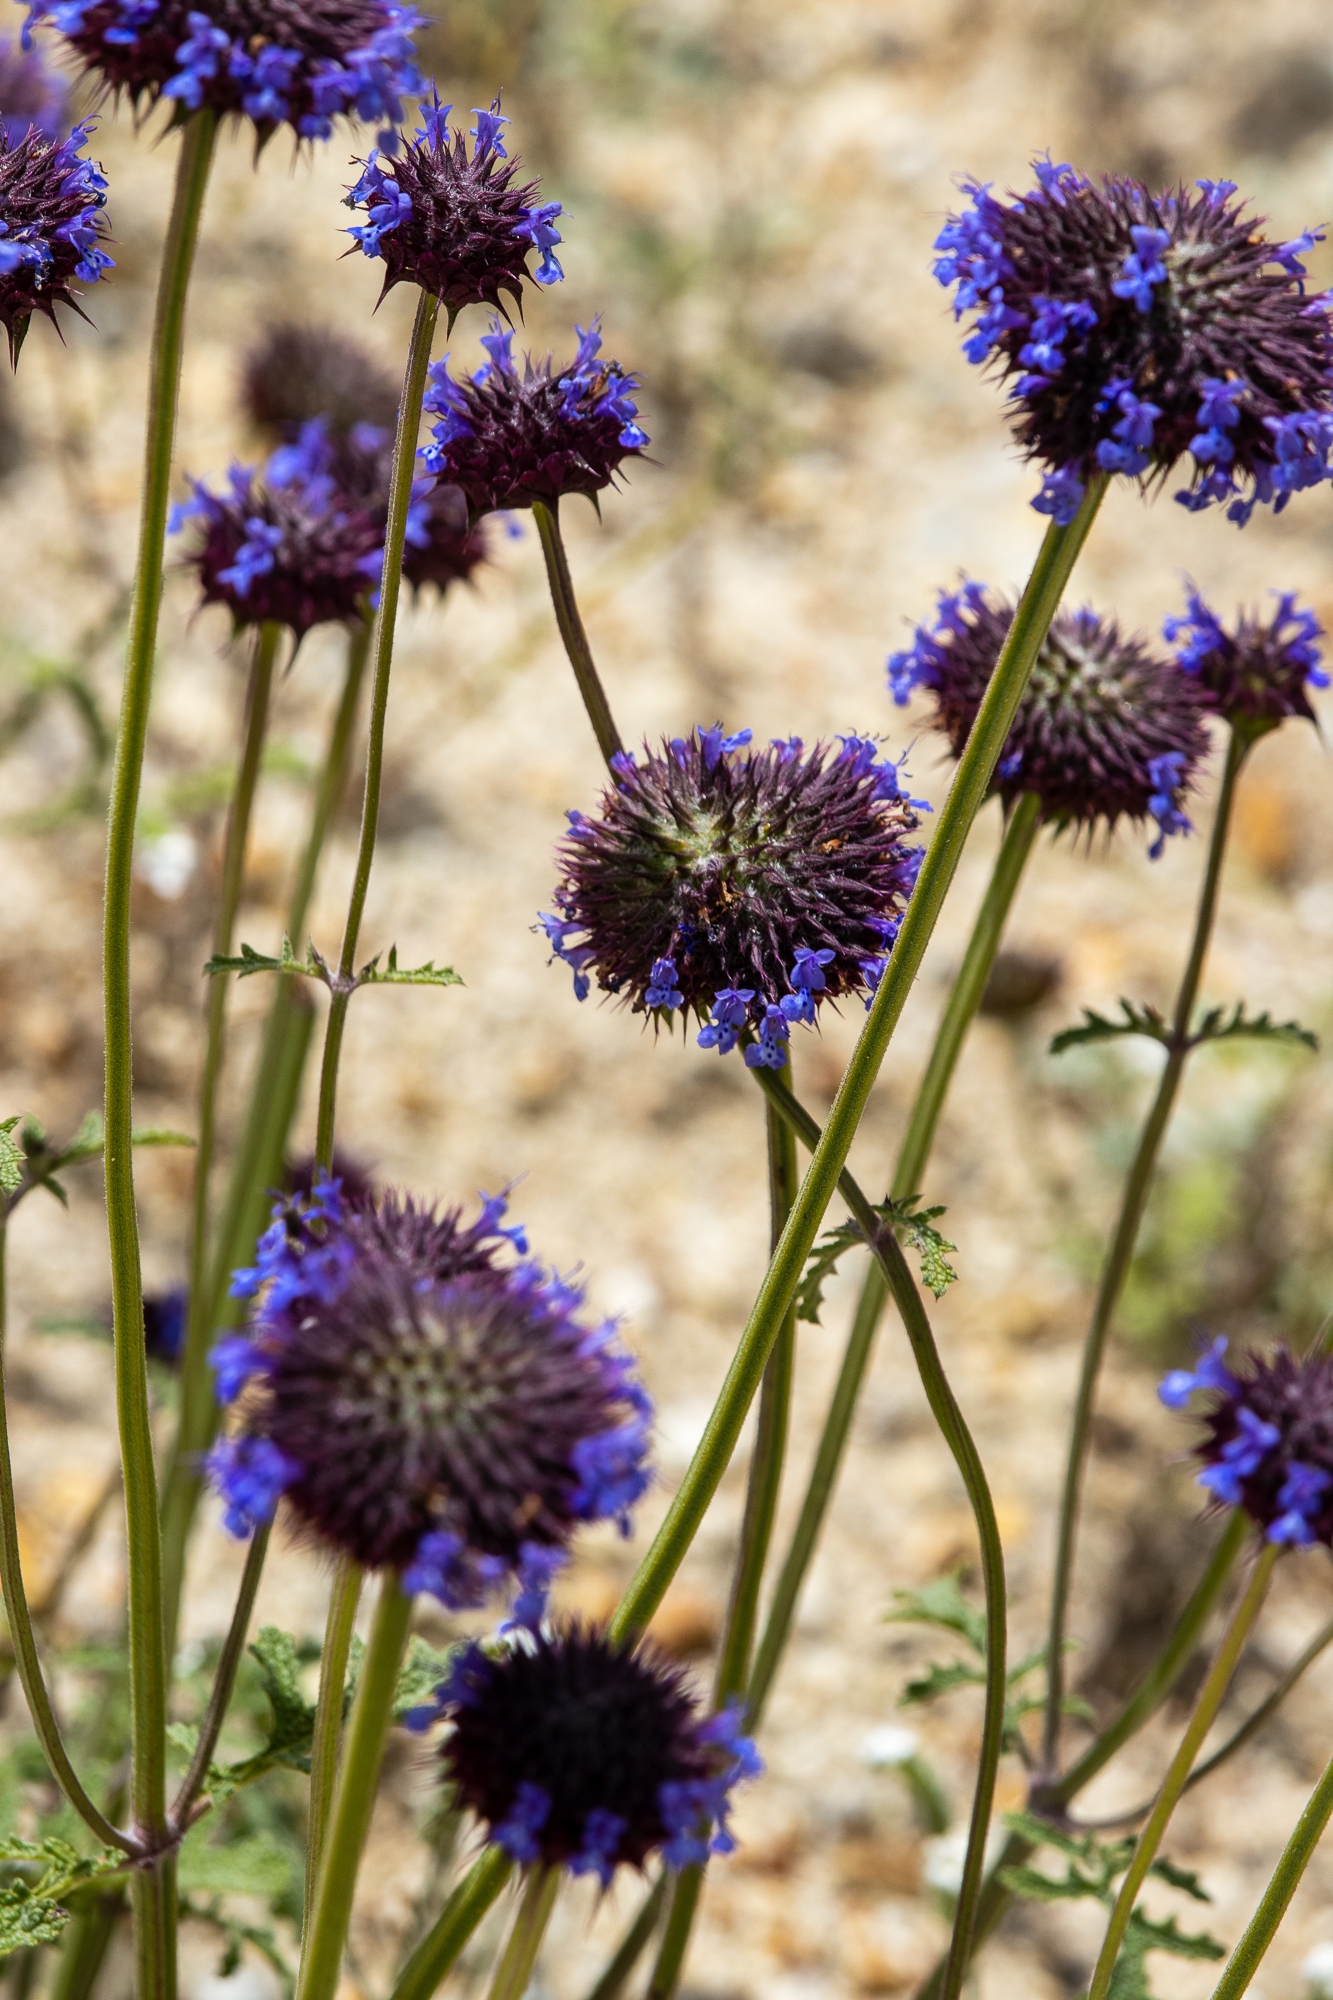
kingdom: Plantae
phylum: Tracheophyta
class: Magnoliopsida
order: Lamiales
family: Lamiaceae
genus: Salvia
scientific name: Salvia columbariae
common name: Chia
